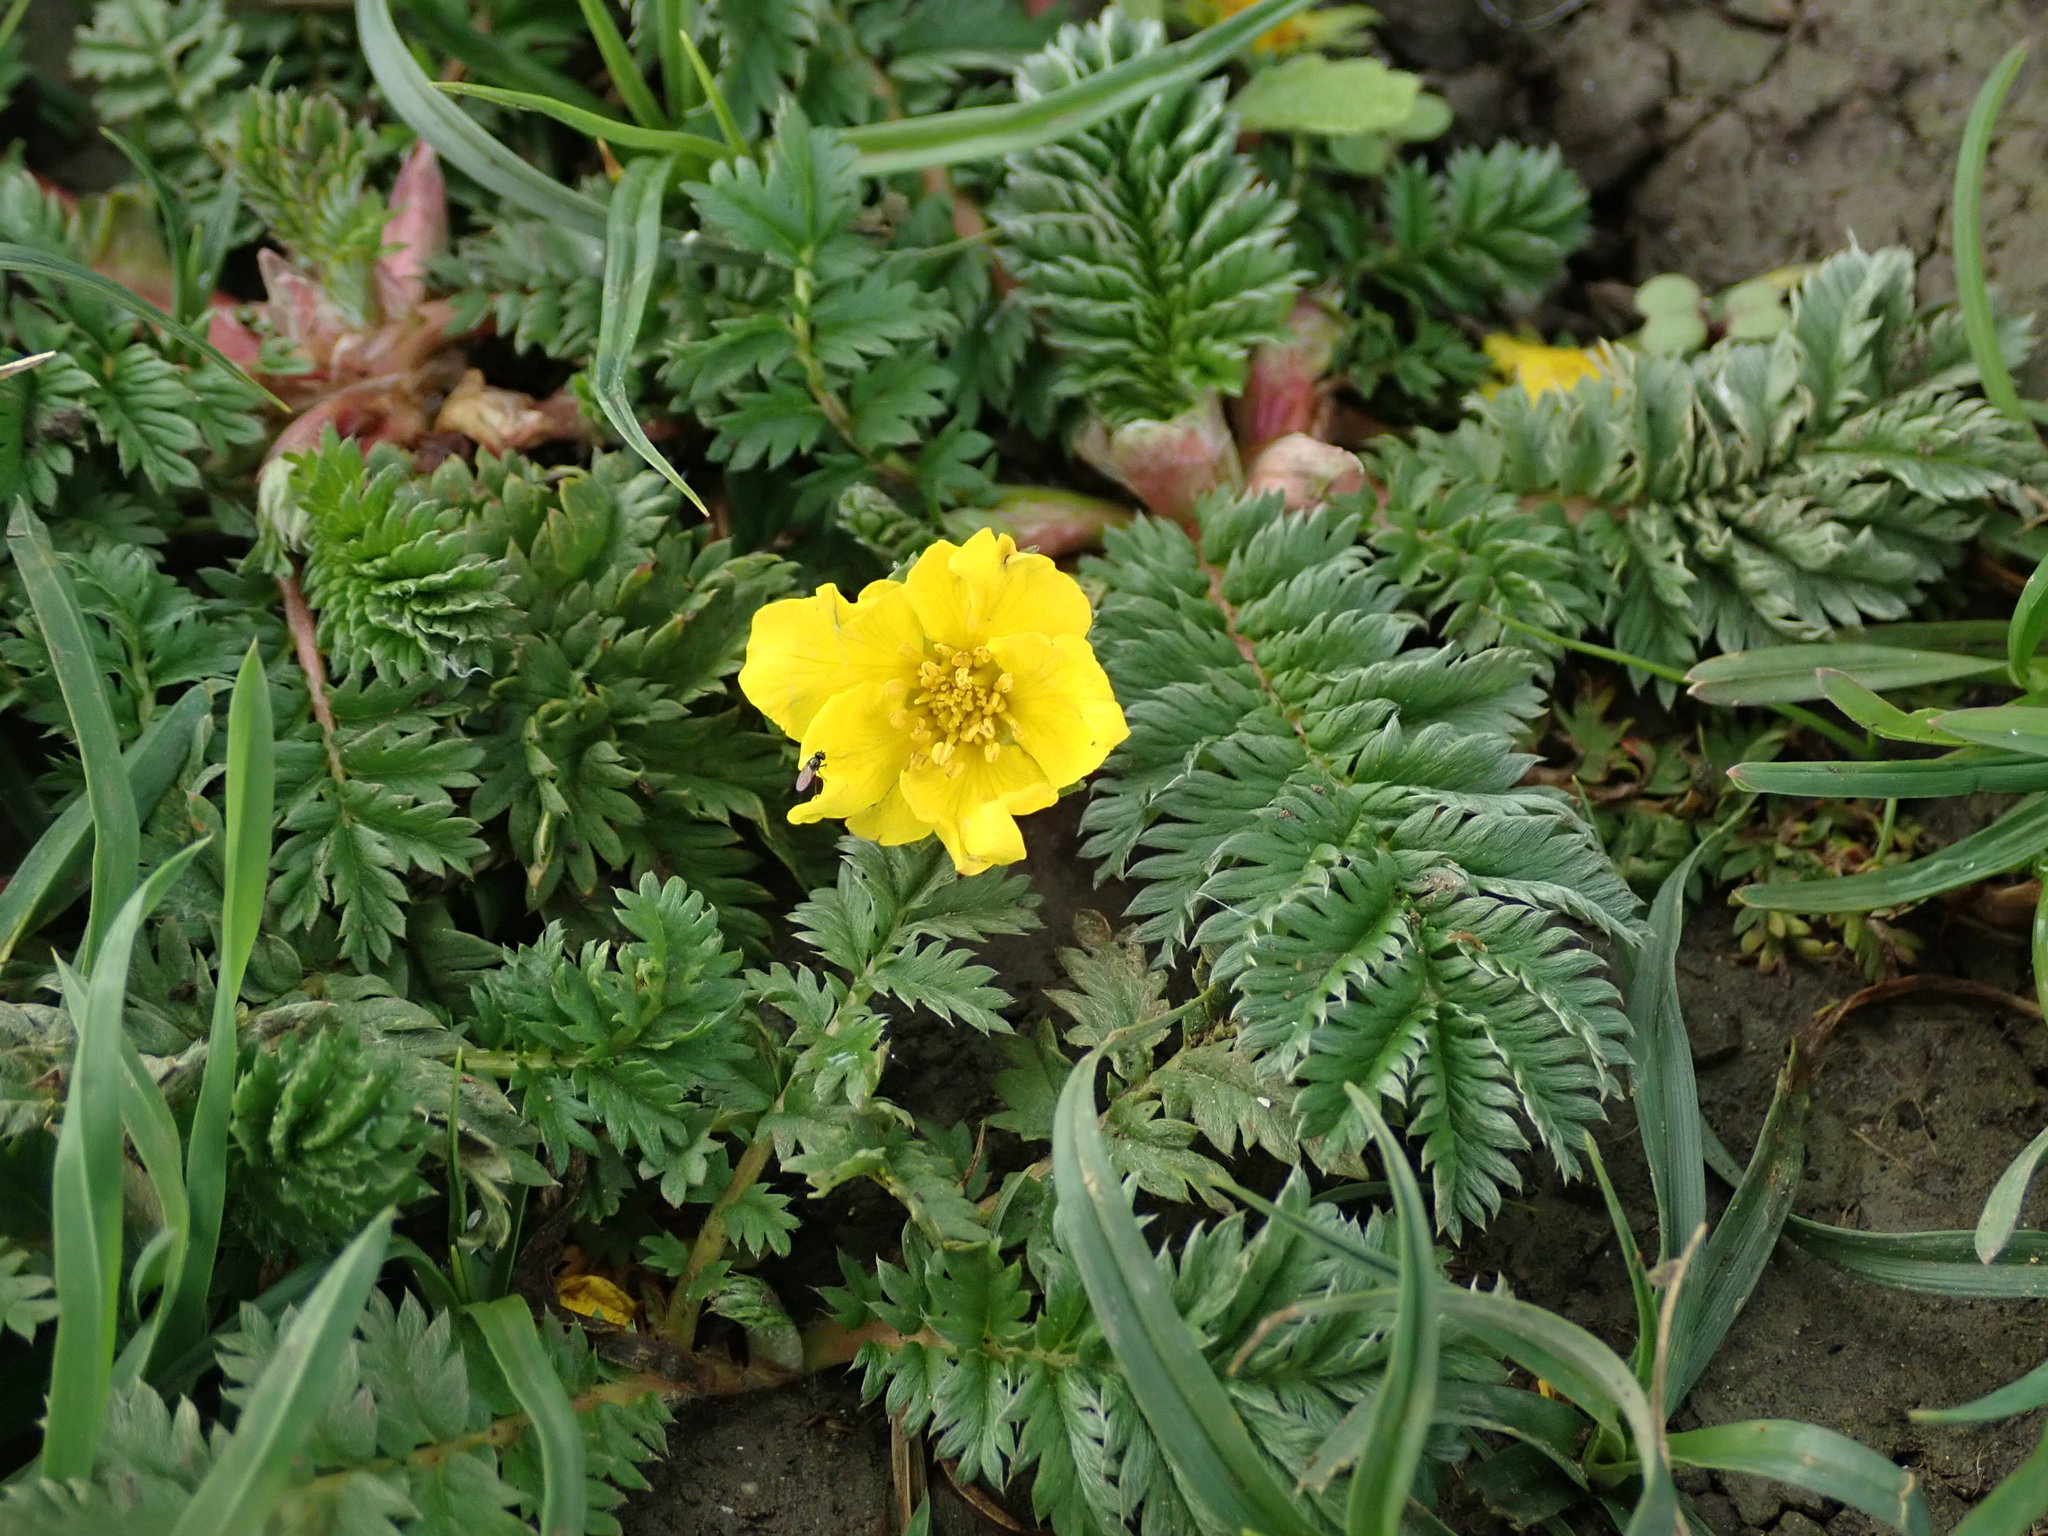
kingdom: Plantae
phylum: Tracheophyta
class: Magnoliopsida
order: Rosales
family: Rosaceae
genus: Argentina
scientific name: Argentina anserina
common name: Common silverweed
